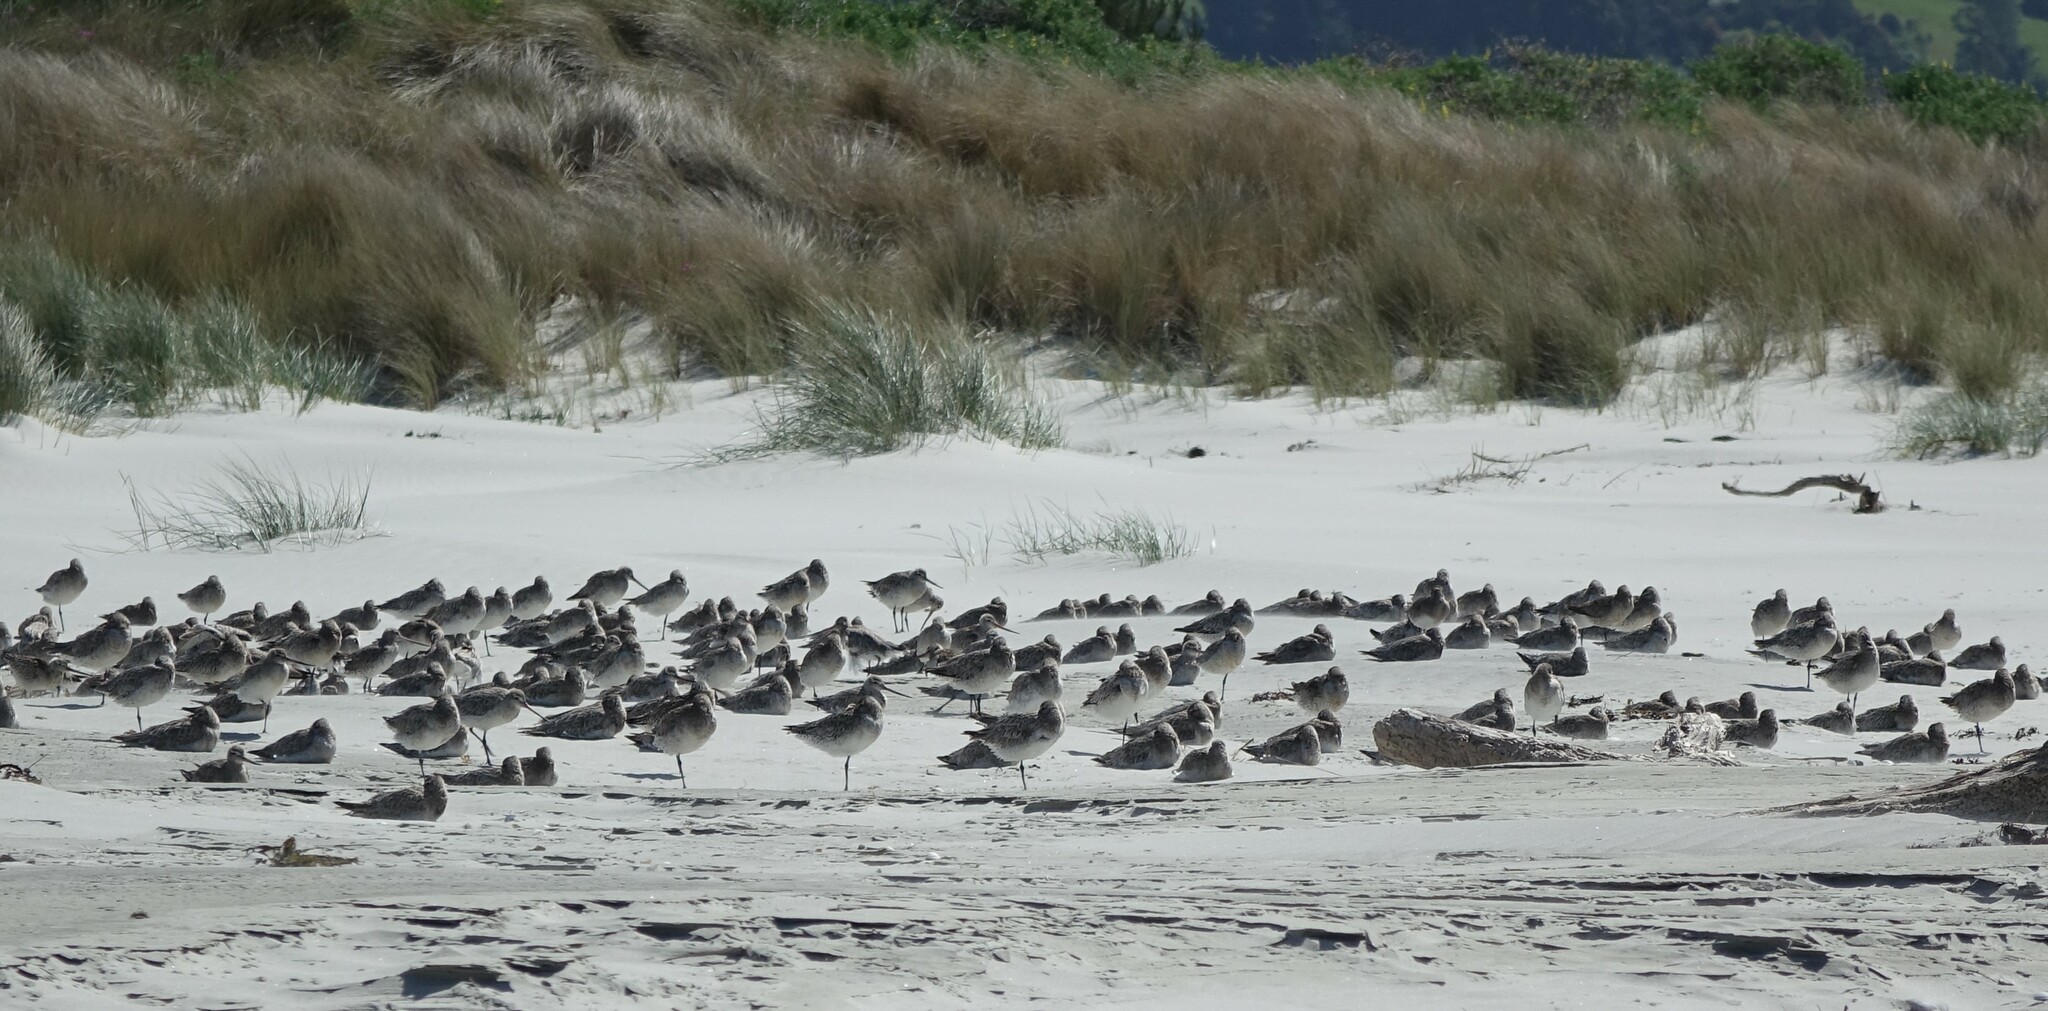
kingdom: Animalia
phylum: Chordata
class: Aves
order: Charadriiformes
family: Scolopacidae
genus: Limosa
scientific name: Limosa lapponica
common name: Bar-tailed godwit
